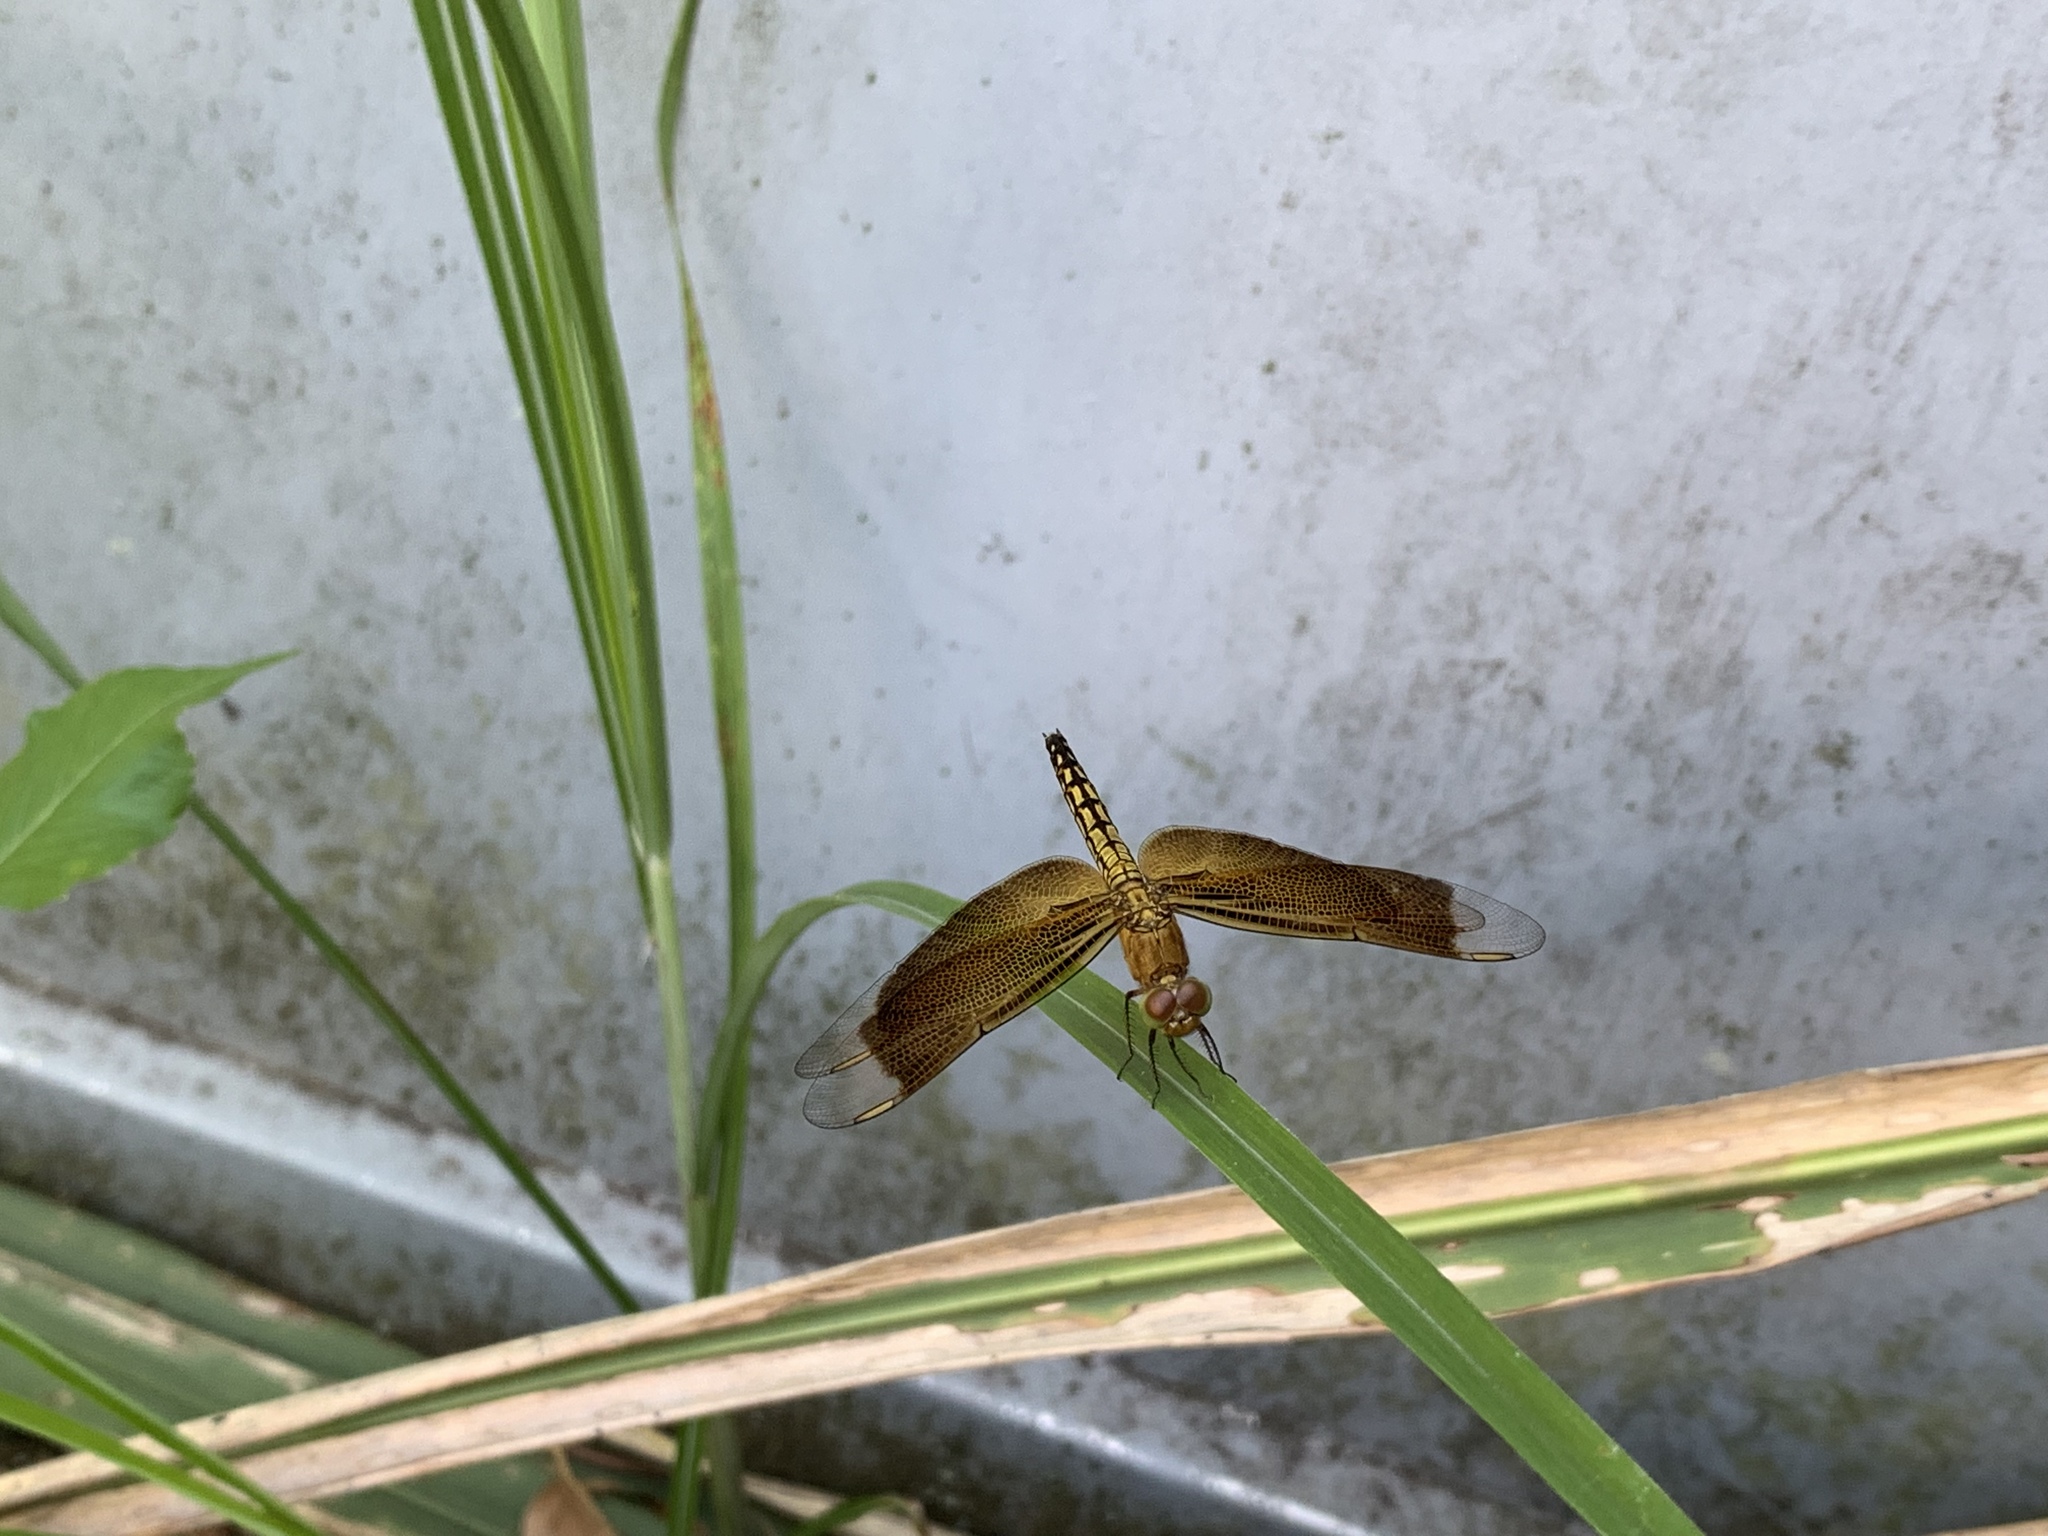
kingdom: Animalia
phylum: Arthropoda
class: Insecta
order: Odonata
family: Libellulidae
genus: Neurothemis
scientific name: Neurothemis taiwanensis
